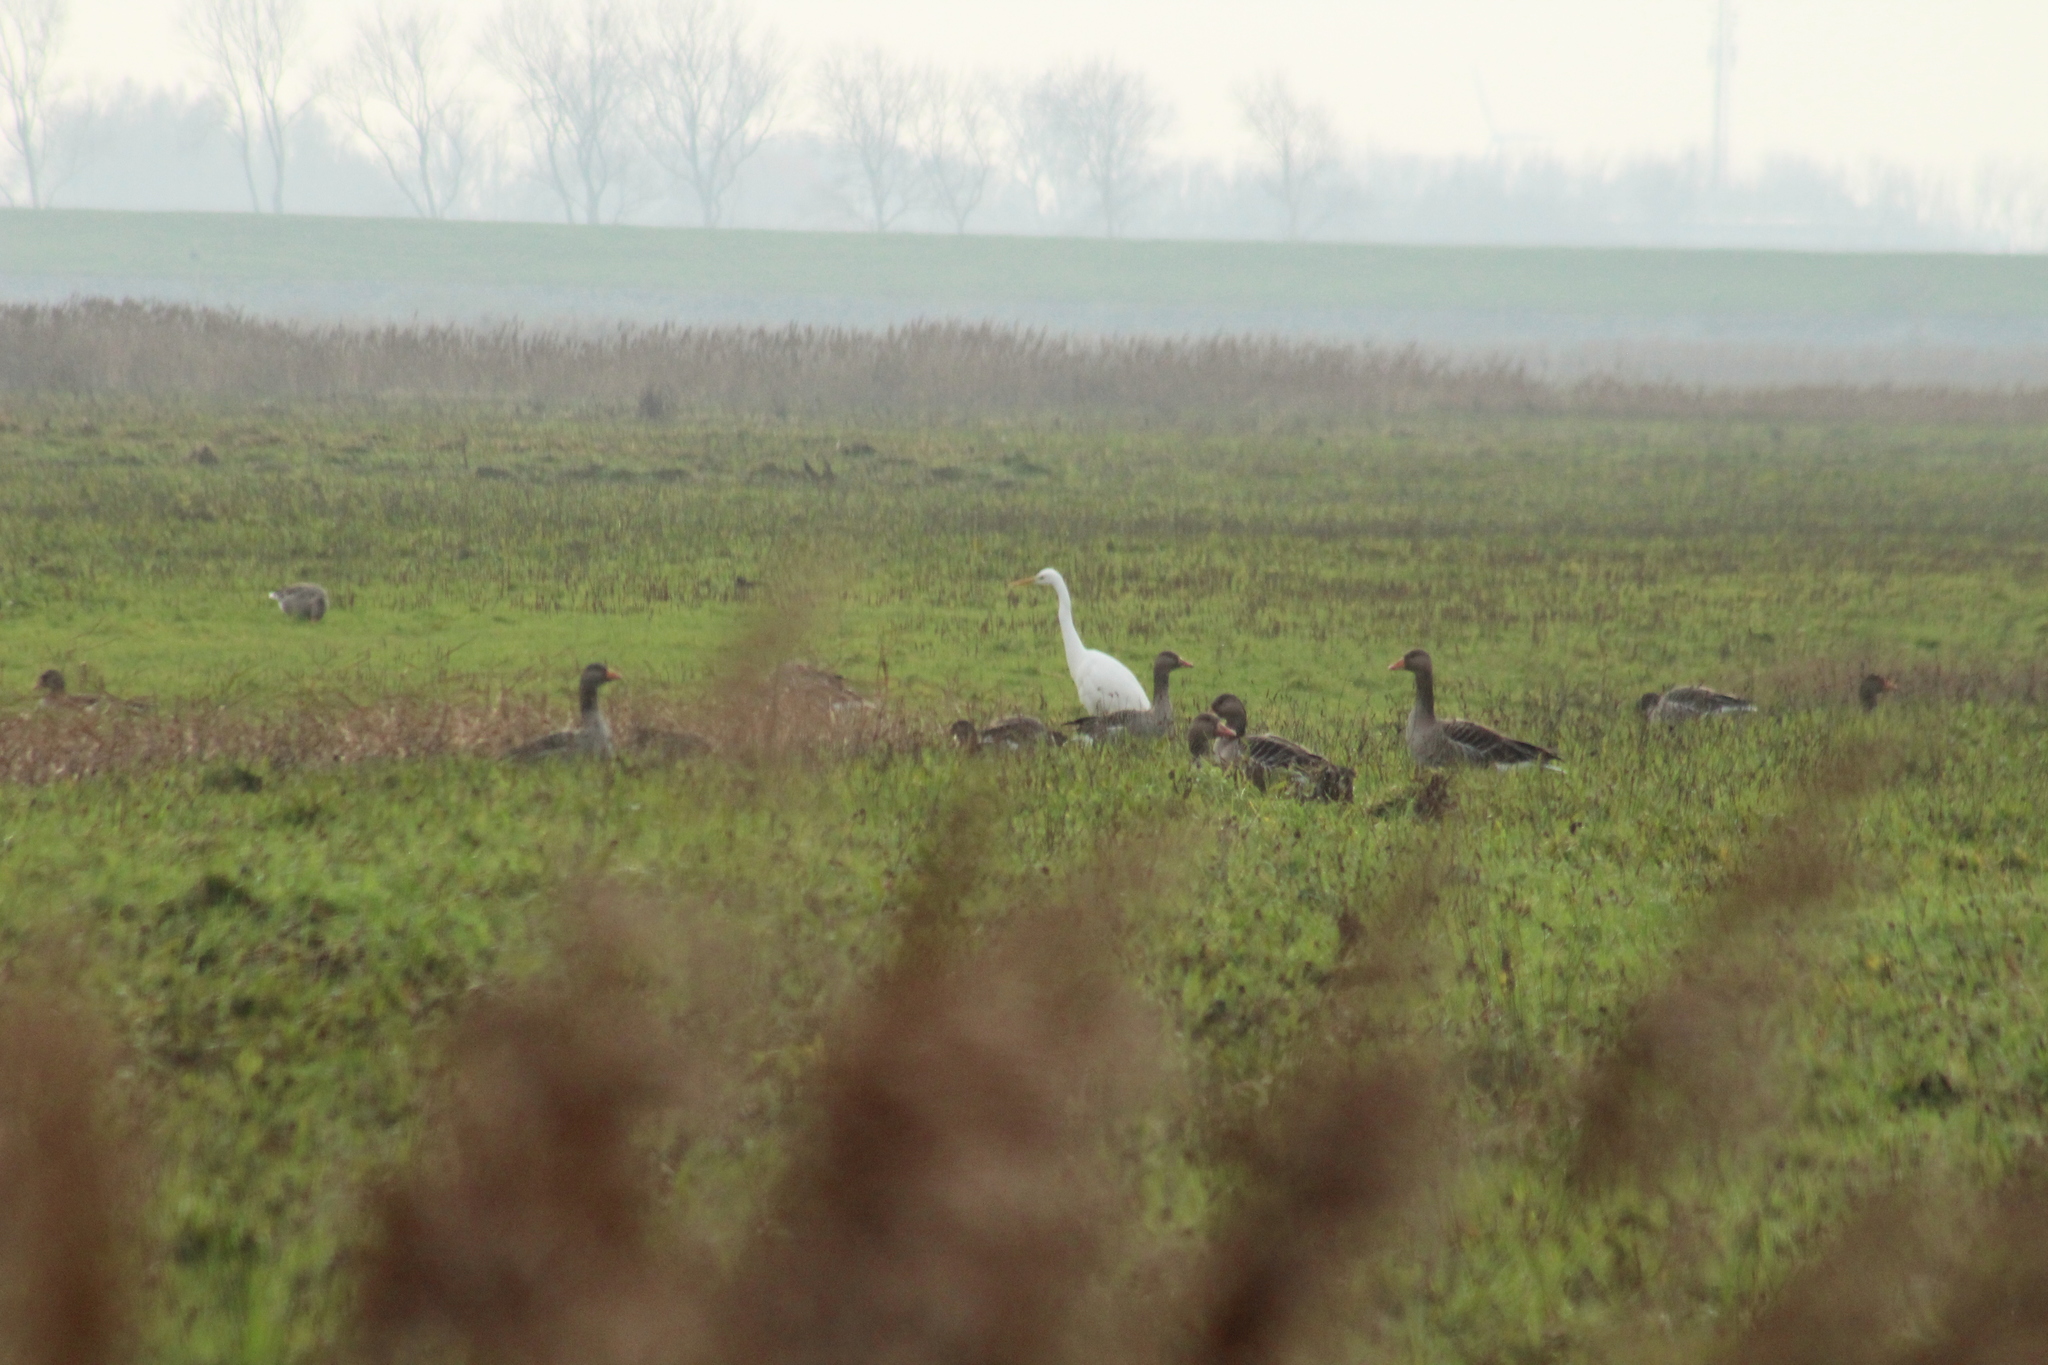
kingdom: Animalia
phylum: Chordata
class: Aves
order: Pelecaniformes
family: Ardeidae
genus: Ardea
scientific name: Ardea alba
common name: Great egret
